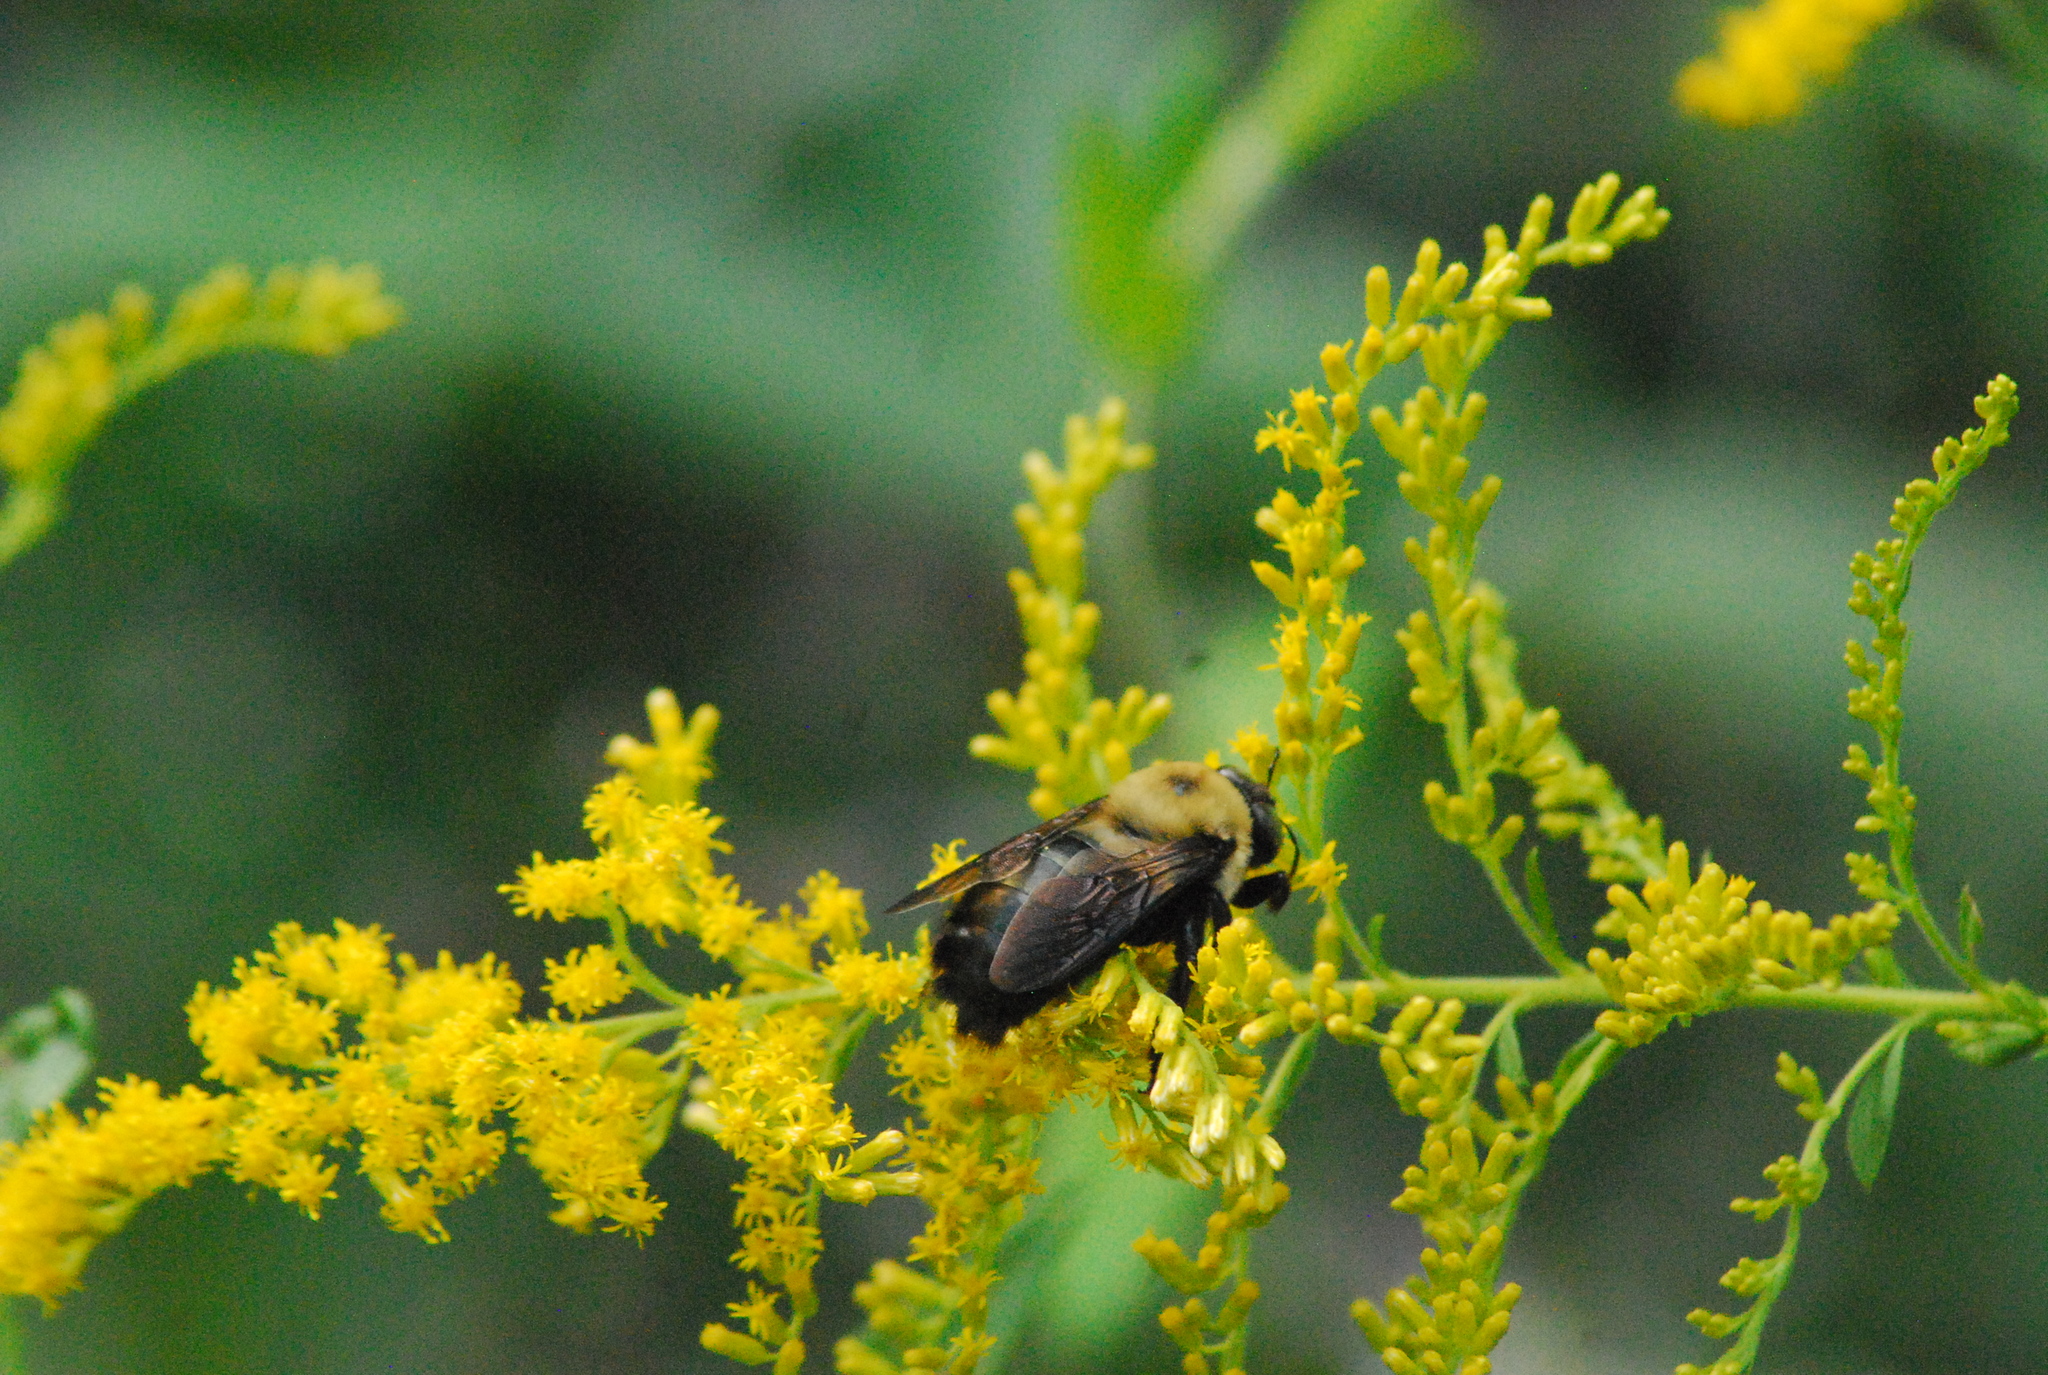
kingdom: Animalia
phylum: Arthropoda
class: Insecta
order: Hymenoptera
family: Apidae
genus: Xylocopa
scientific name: Xylocopa virginica
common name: Carpenter bee
